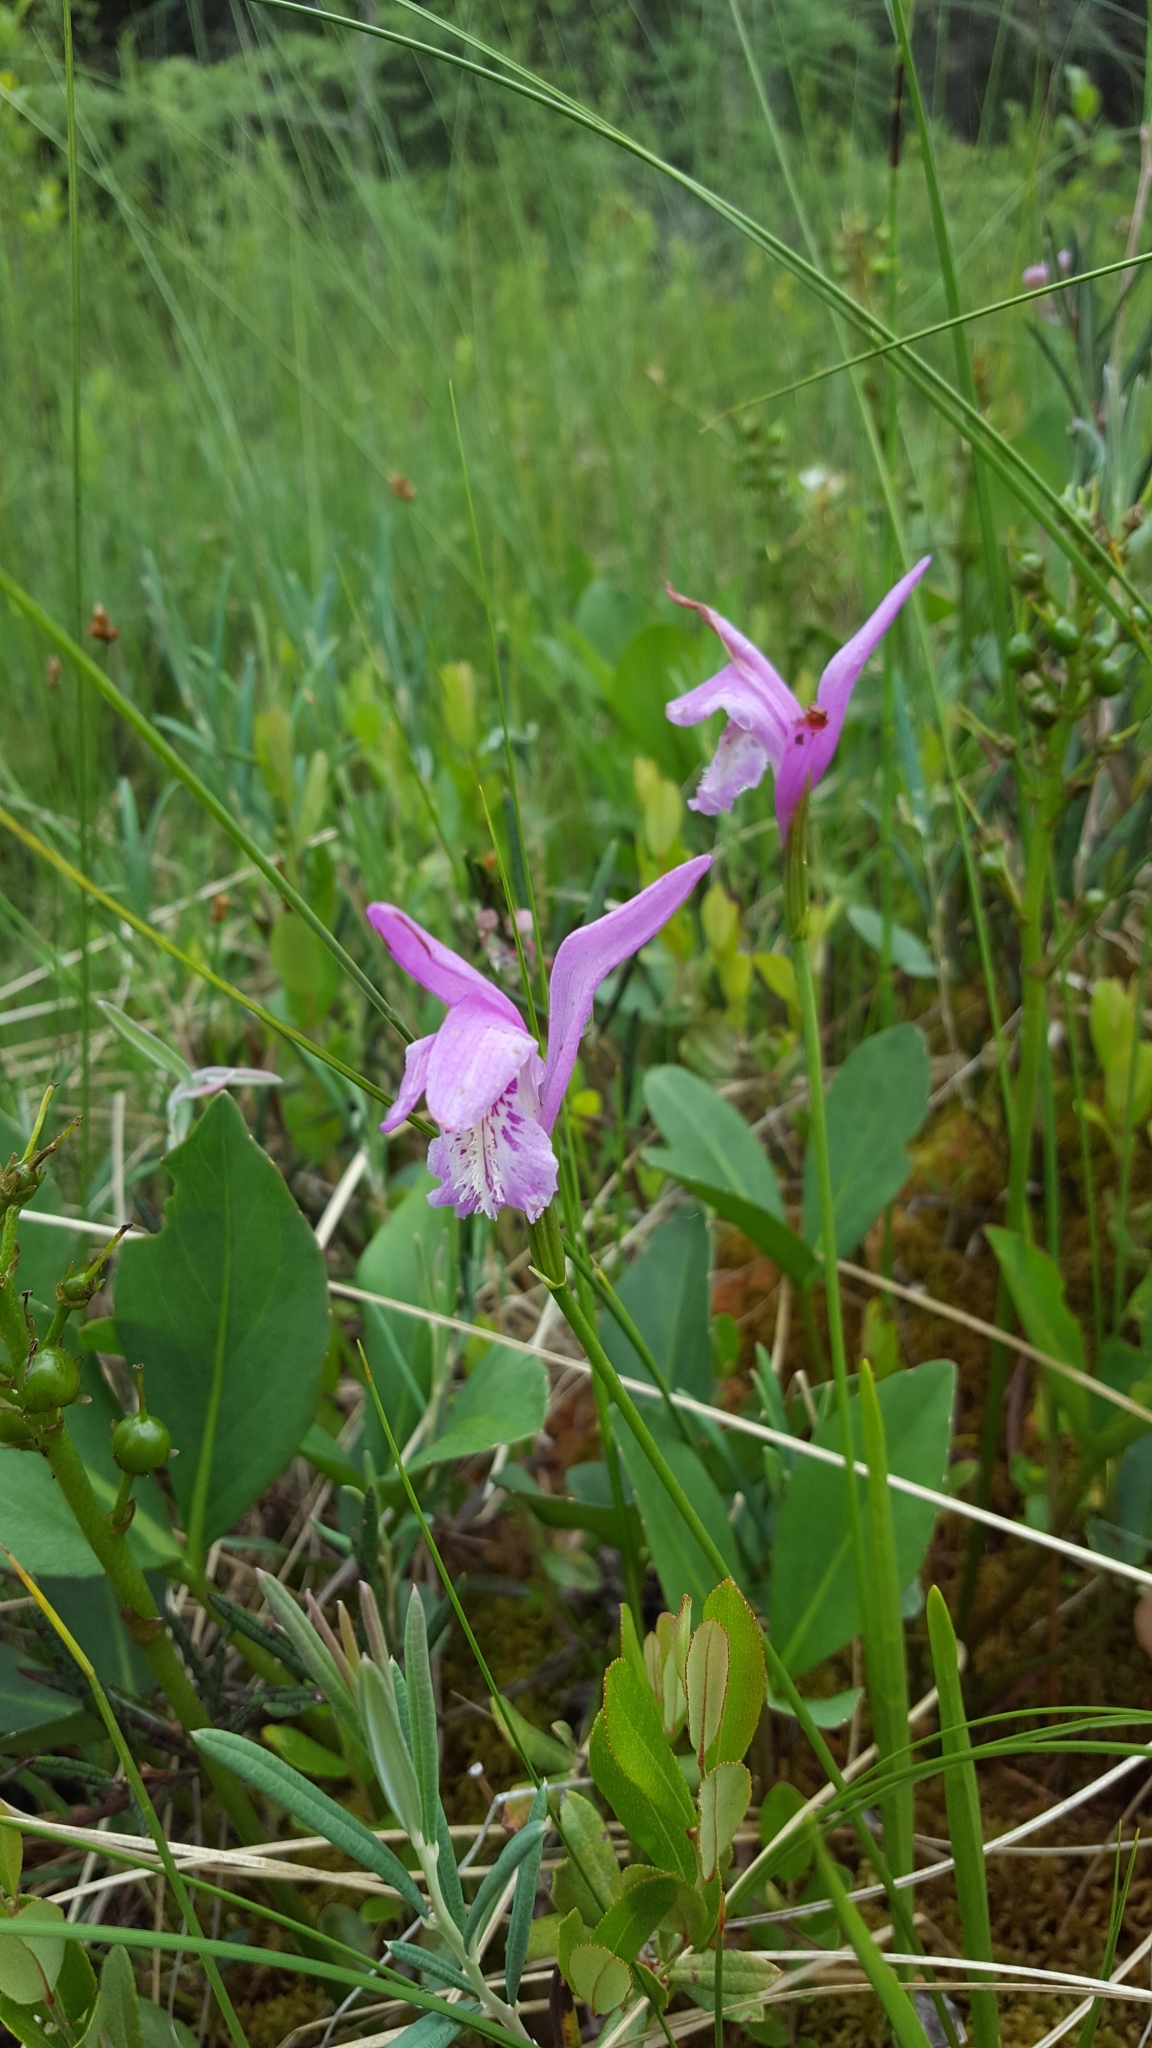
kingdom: Plantae
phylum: Tracheophyta
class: Liliopsida
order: Asparagales
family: Orchidaceae
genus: Arethusa
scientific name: Arethusa bulbosa
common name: Arethusa
